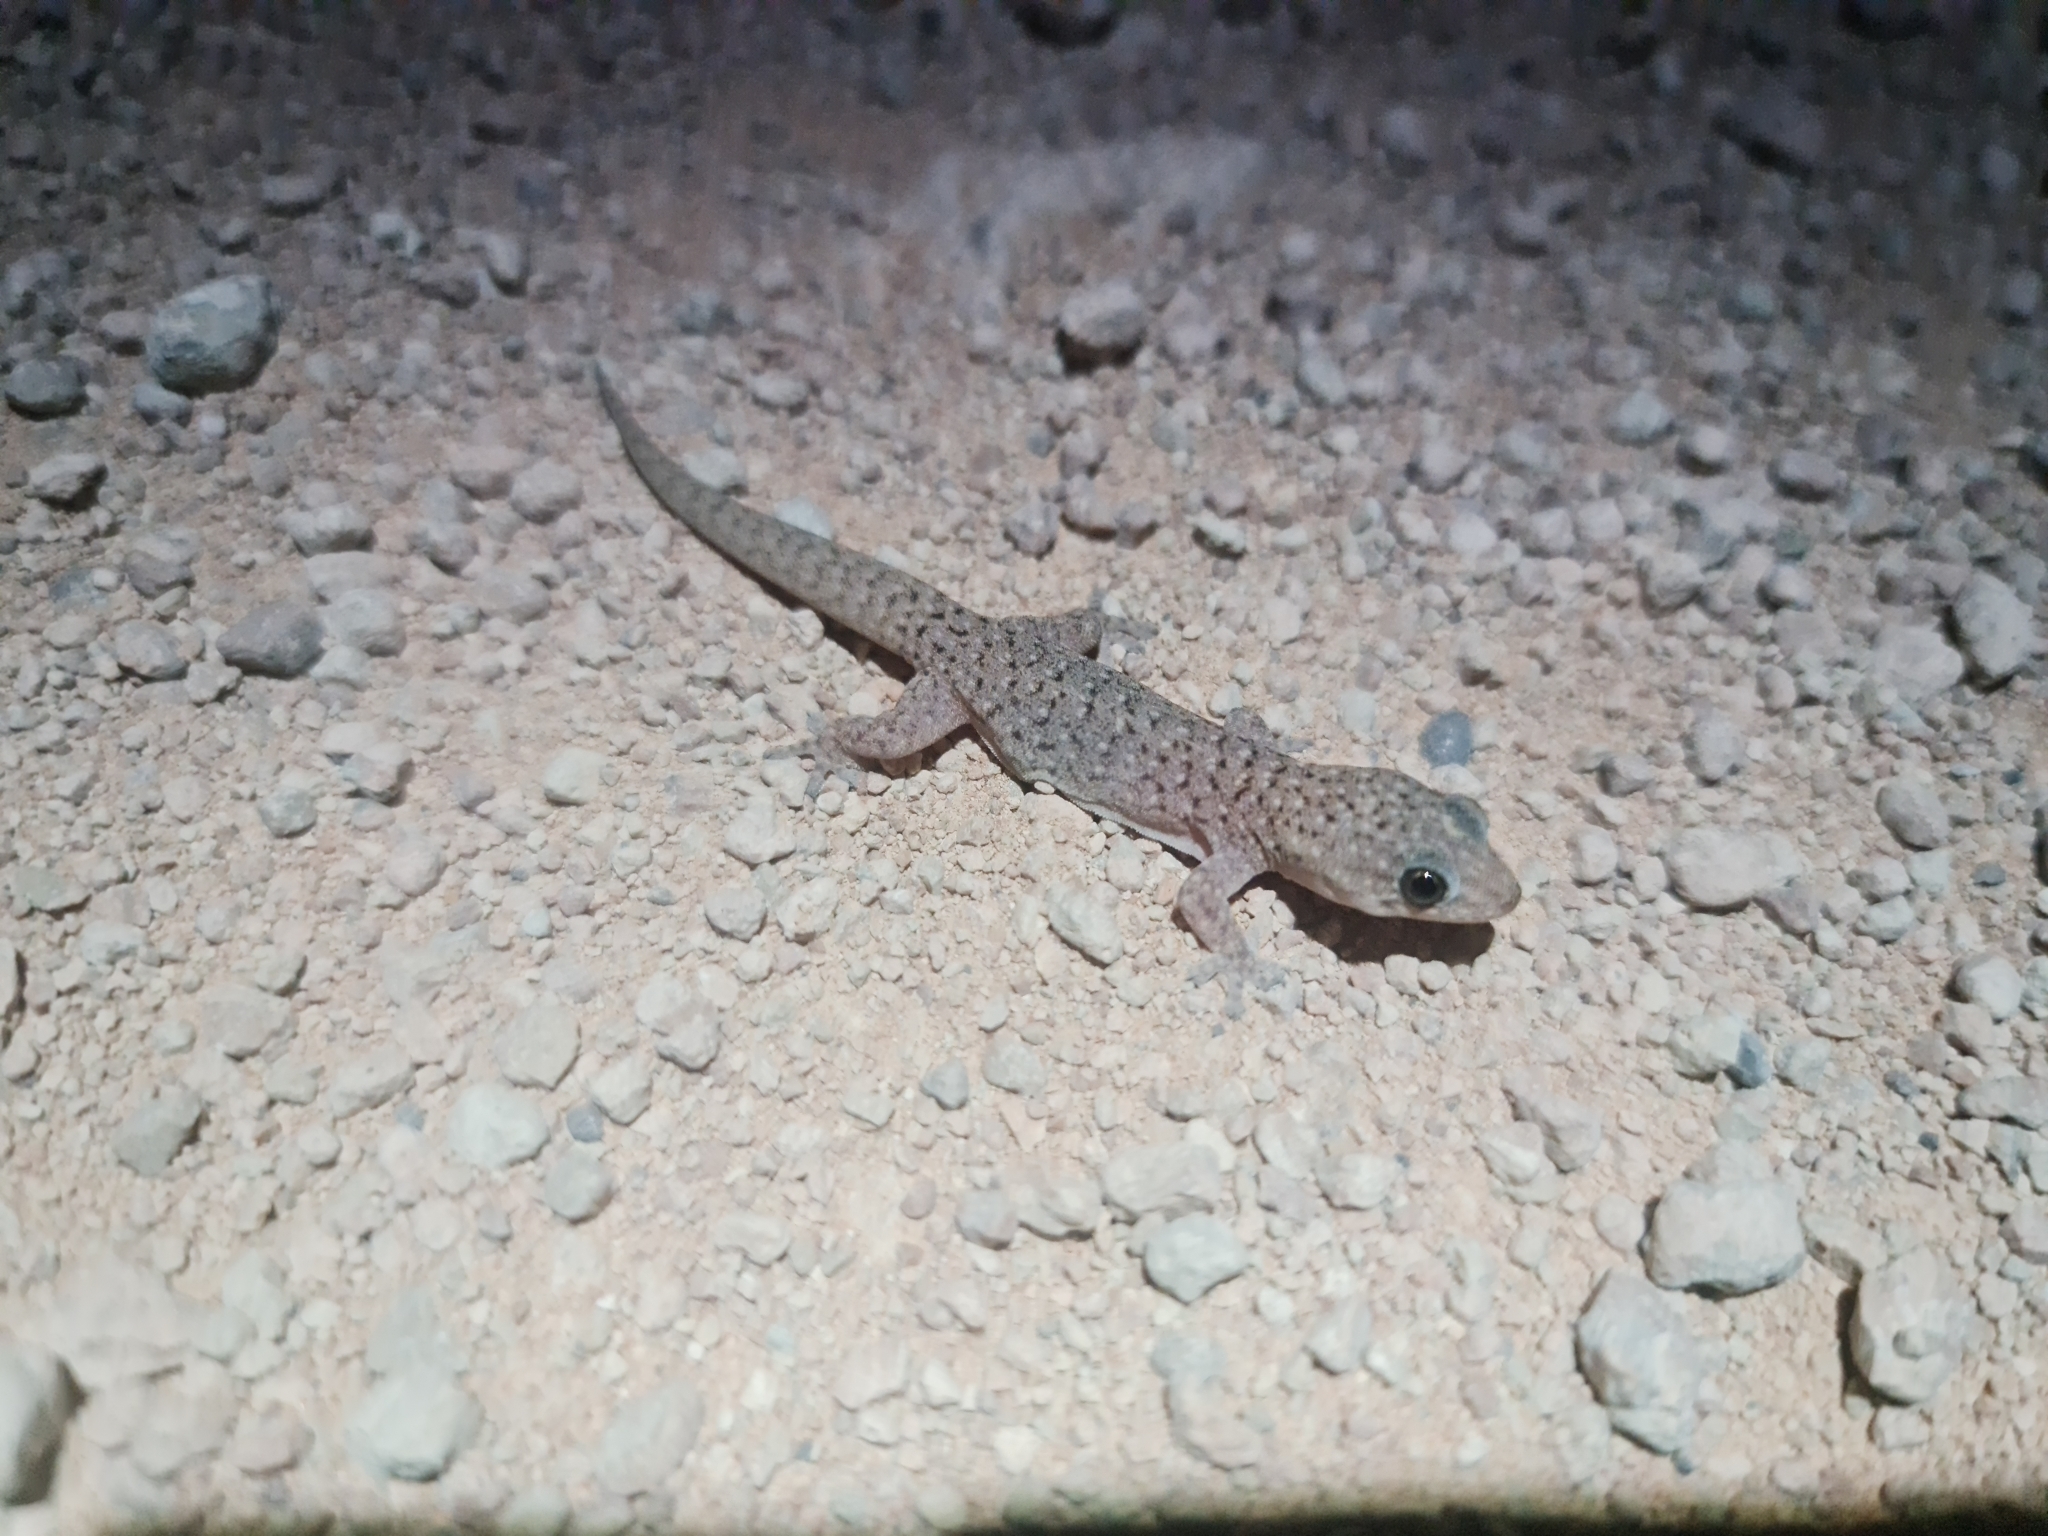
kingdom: Animalia
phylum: Chordata
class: Squamata
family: Gekkonidae
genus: Gehyra
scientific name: Gehyra lazelli
